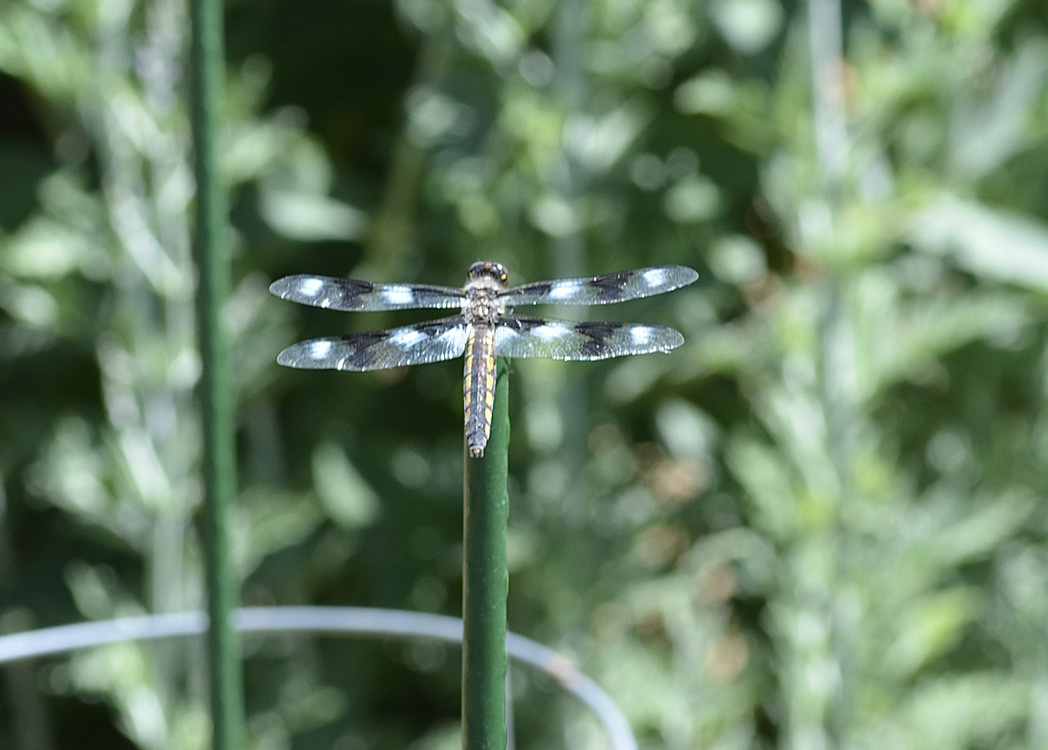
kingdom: Animalia
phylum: Arthropoda
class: Insecta
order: Odonata
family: Libellulidae
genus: Libellula
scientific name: Libellula forensis
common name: Eight-spotted skimmer
